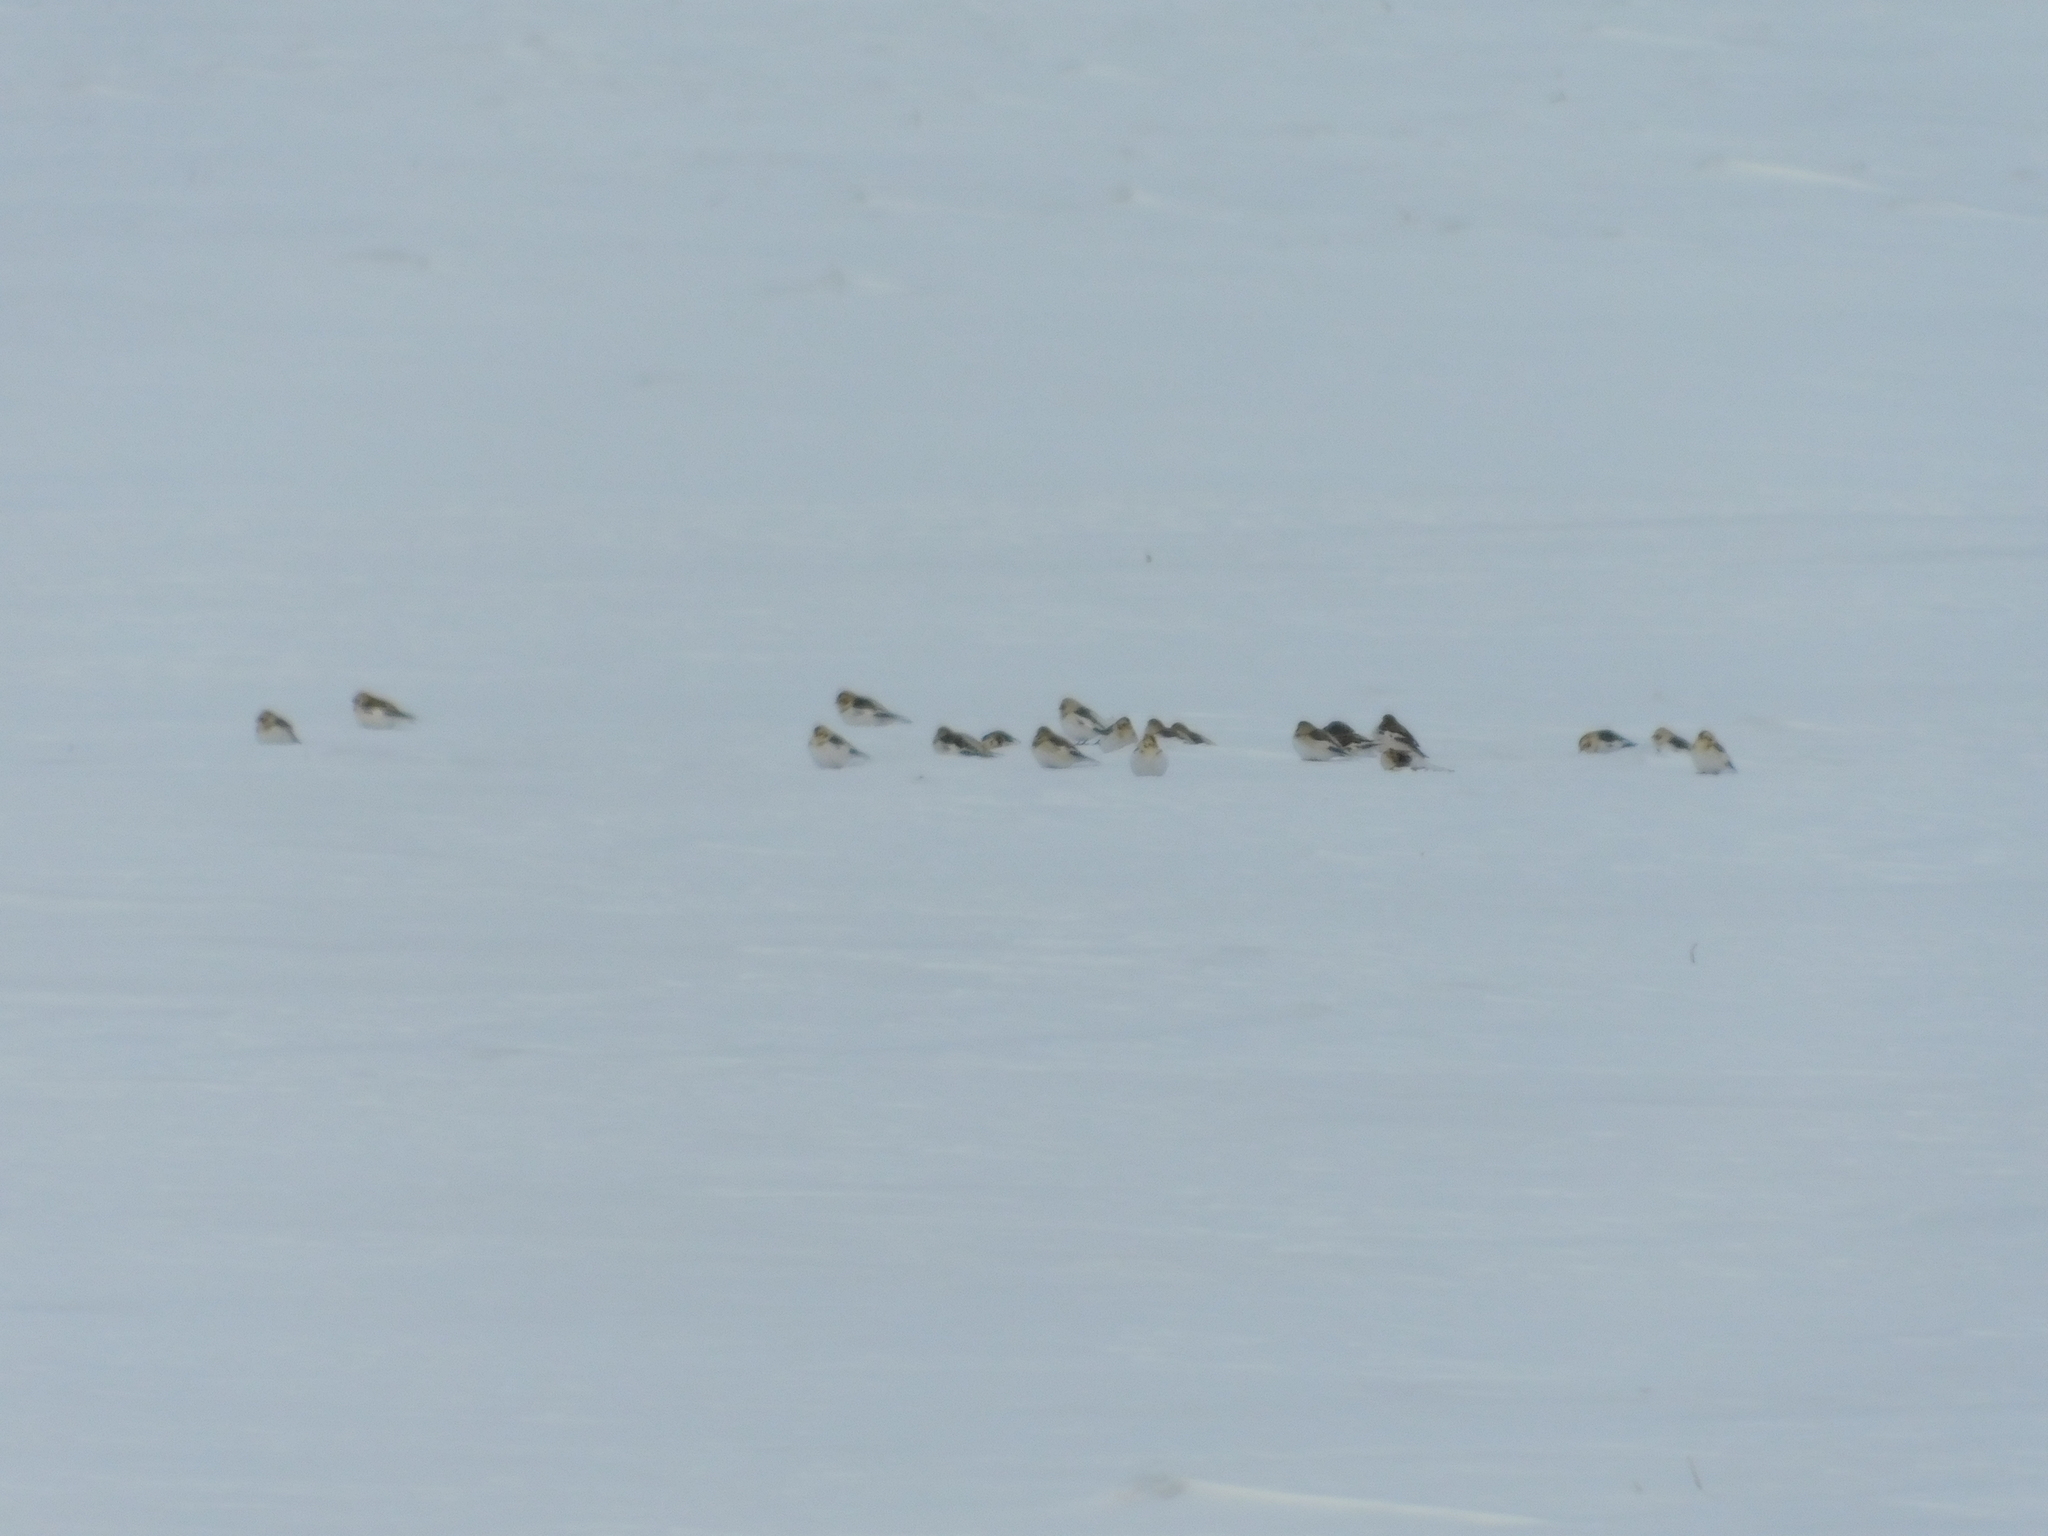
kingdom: Animalia
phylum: Chordata
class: Aves
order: Passeriformes
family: Calcariidae
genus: Plectrophenax
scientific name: Plectrophenax nivalis
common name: Snow bunting
